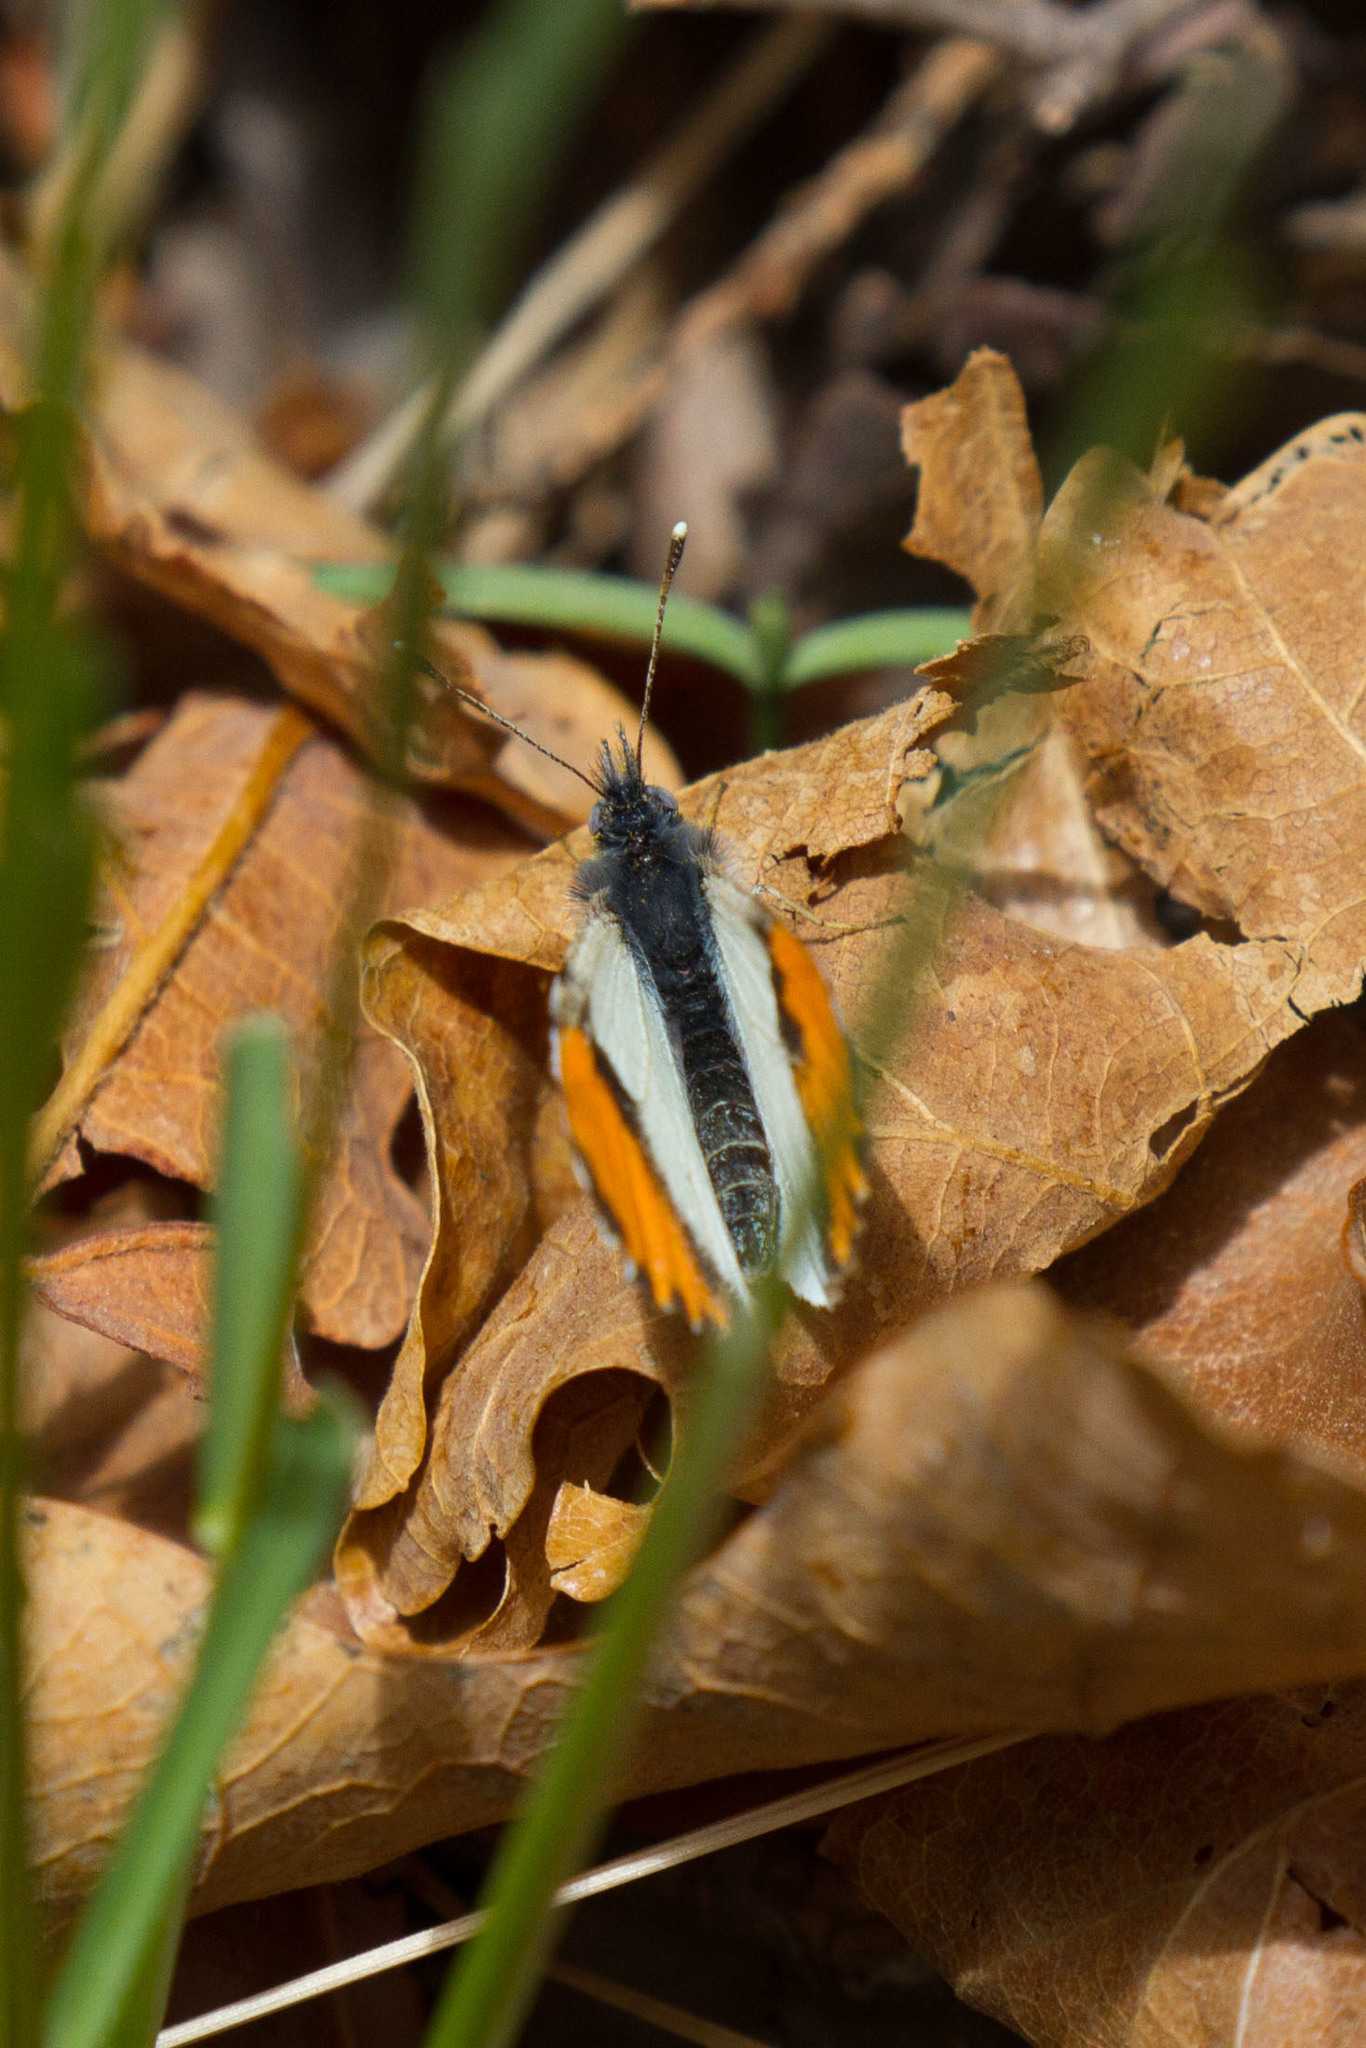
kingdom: Animalia
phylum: Arthropoda
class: Insecta
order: Lepidoptera
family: Pieridae
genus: Anthocharis
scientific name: Anthocharis thoosa
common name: Southwestern orangetip
